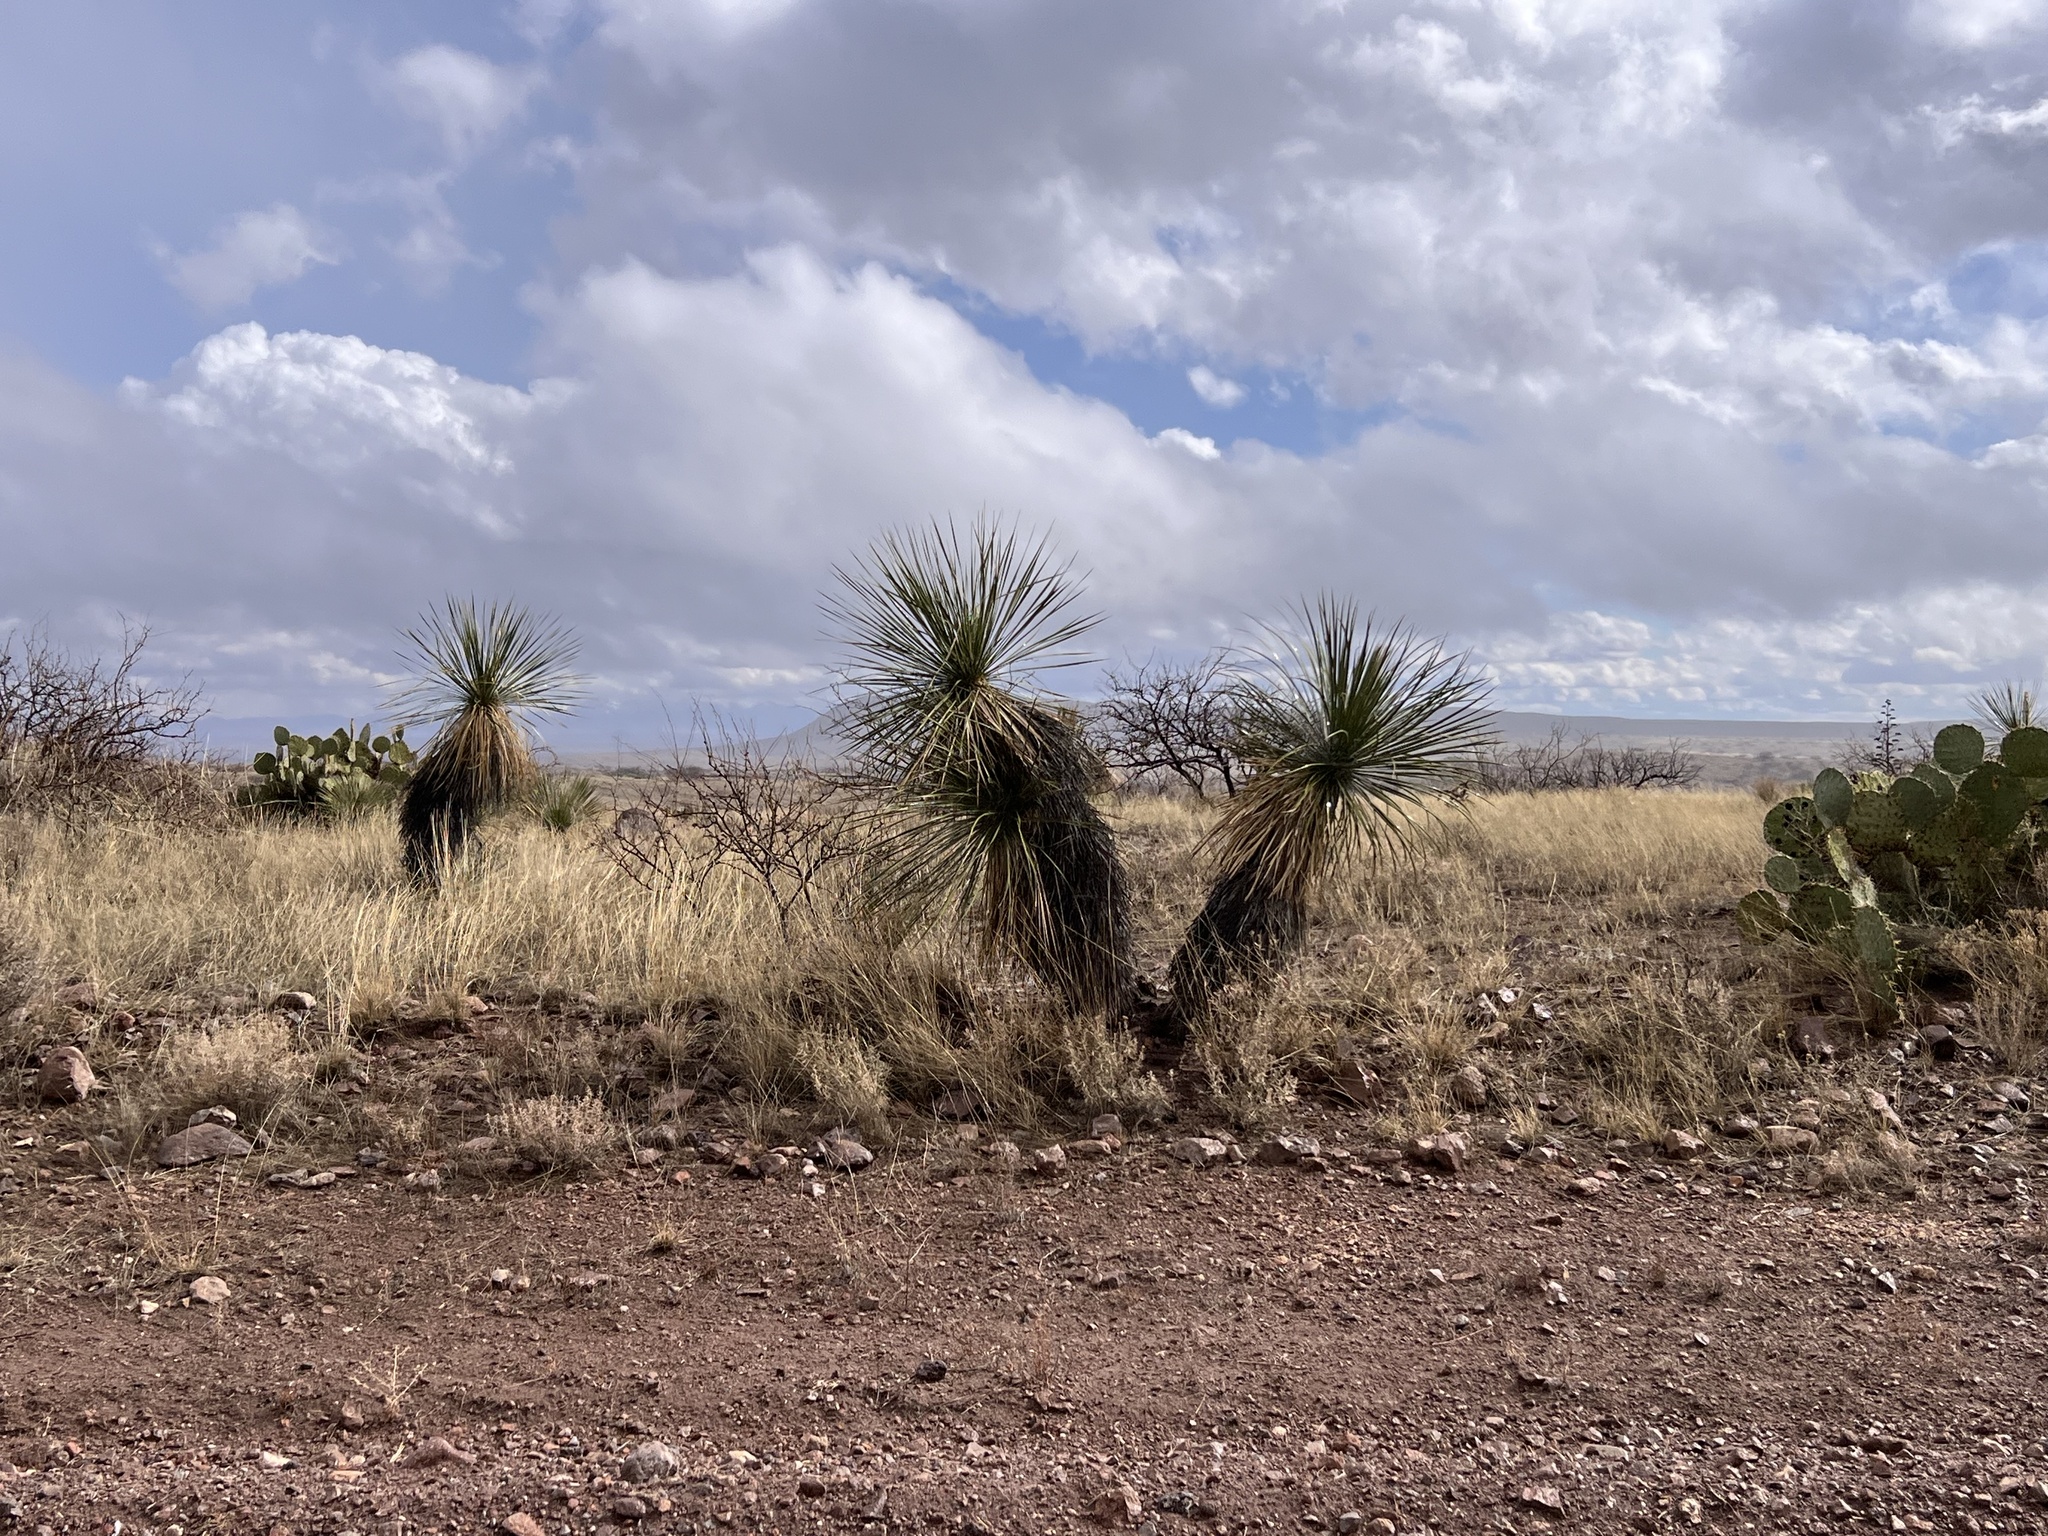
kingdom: Plantae
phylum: Tracheophyta
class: Liliopsida
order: Asparagales
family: Asparagaceae
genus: Yucca
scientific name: Yucca elata
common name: Palmella
